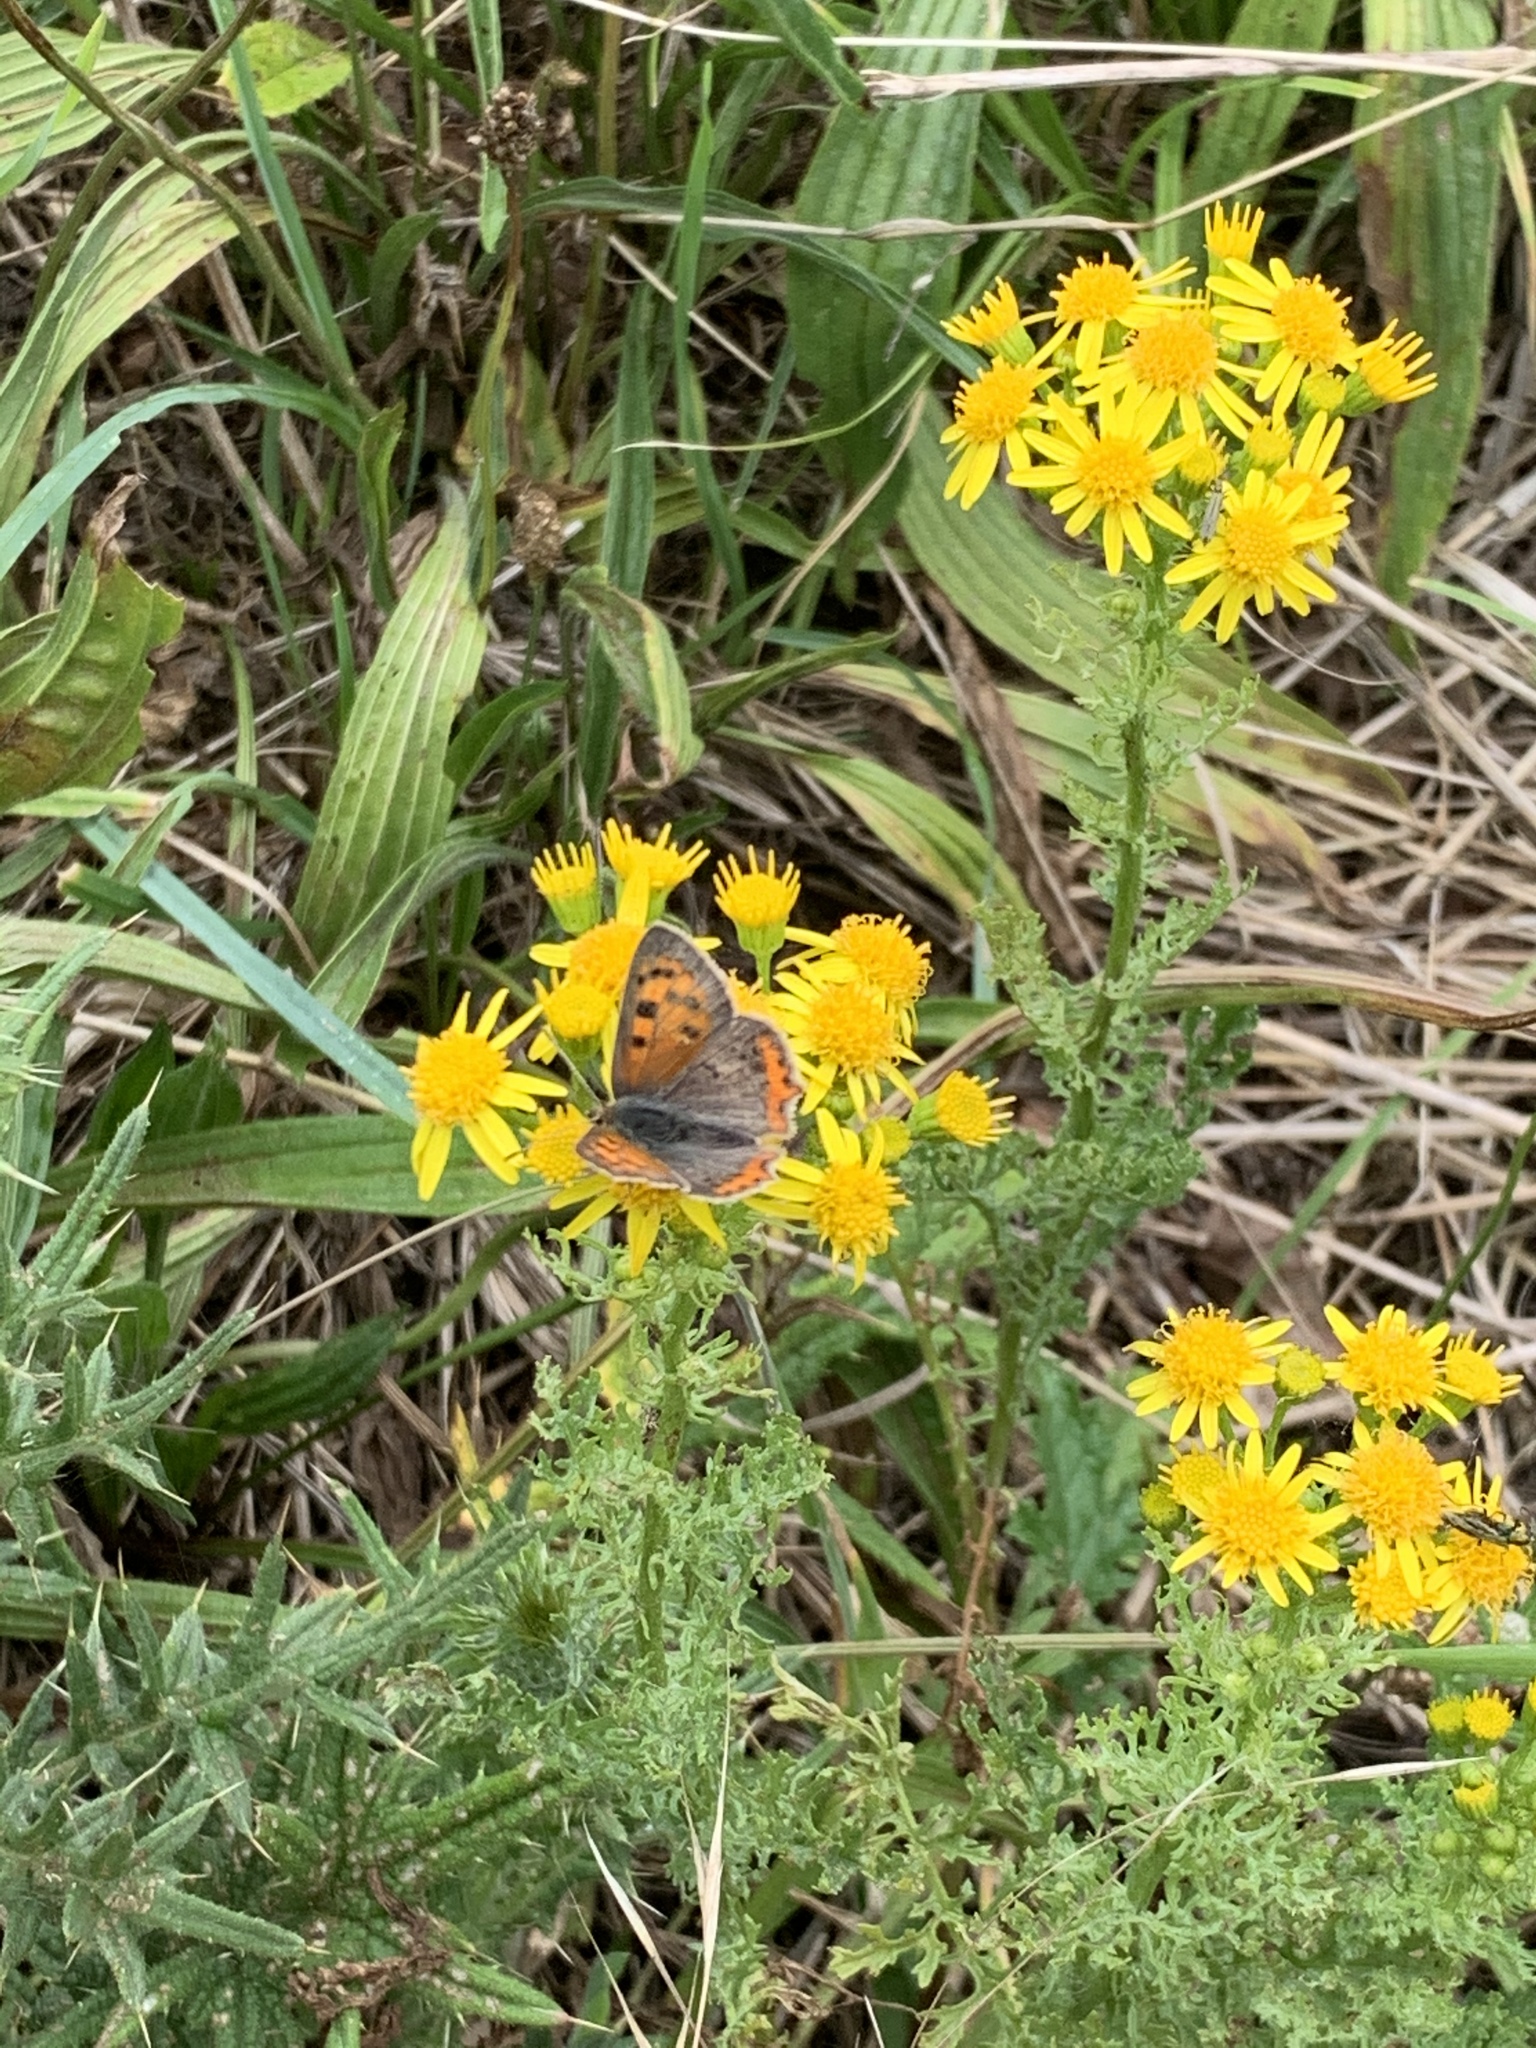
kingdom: Animalia
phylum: Arthropoda
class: Insecta
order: Lepidoptera
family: Lycaenidae
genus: Lycaena
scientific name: Lycaena phlaeas
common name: Small copper
